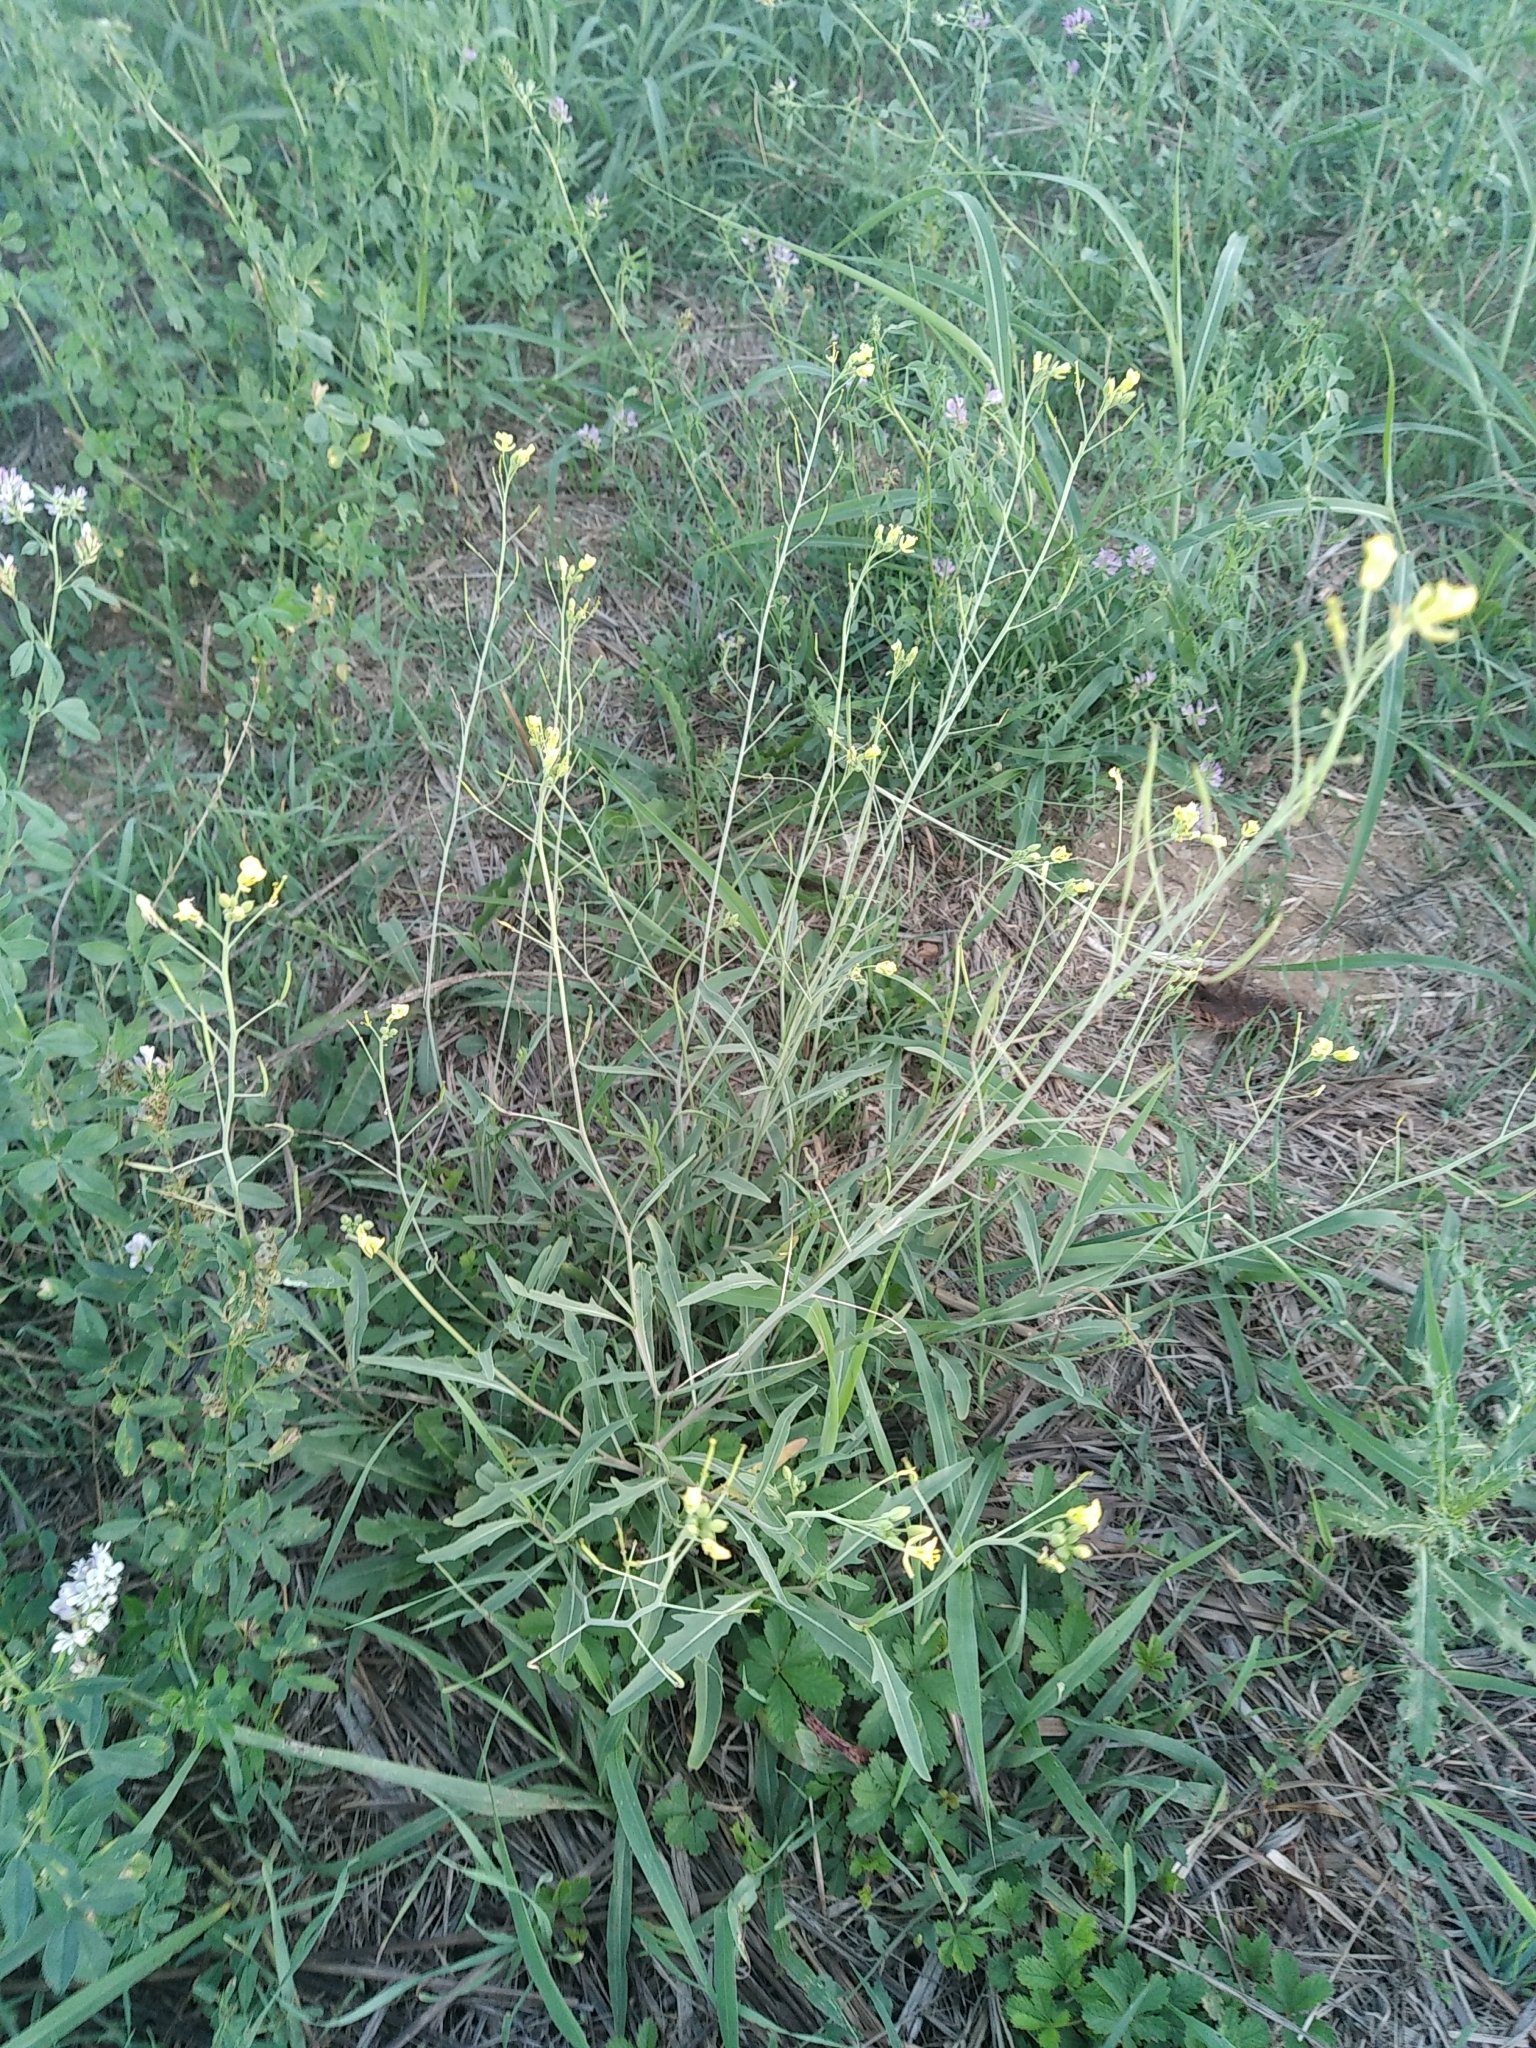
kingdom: Plantae
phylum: Tracheophyta
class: Magnoliopsida
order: Brassicales
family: Brassicaceae
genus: Diplotaxis
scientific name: Diplotaxis tenuifolia
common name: Perennial wall-rocket
